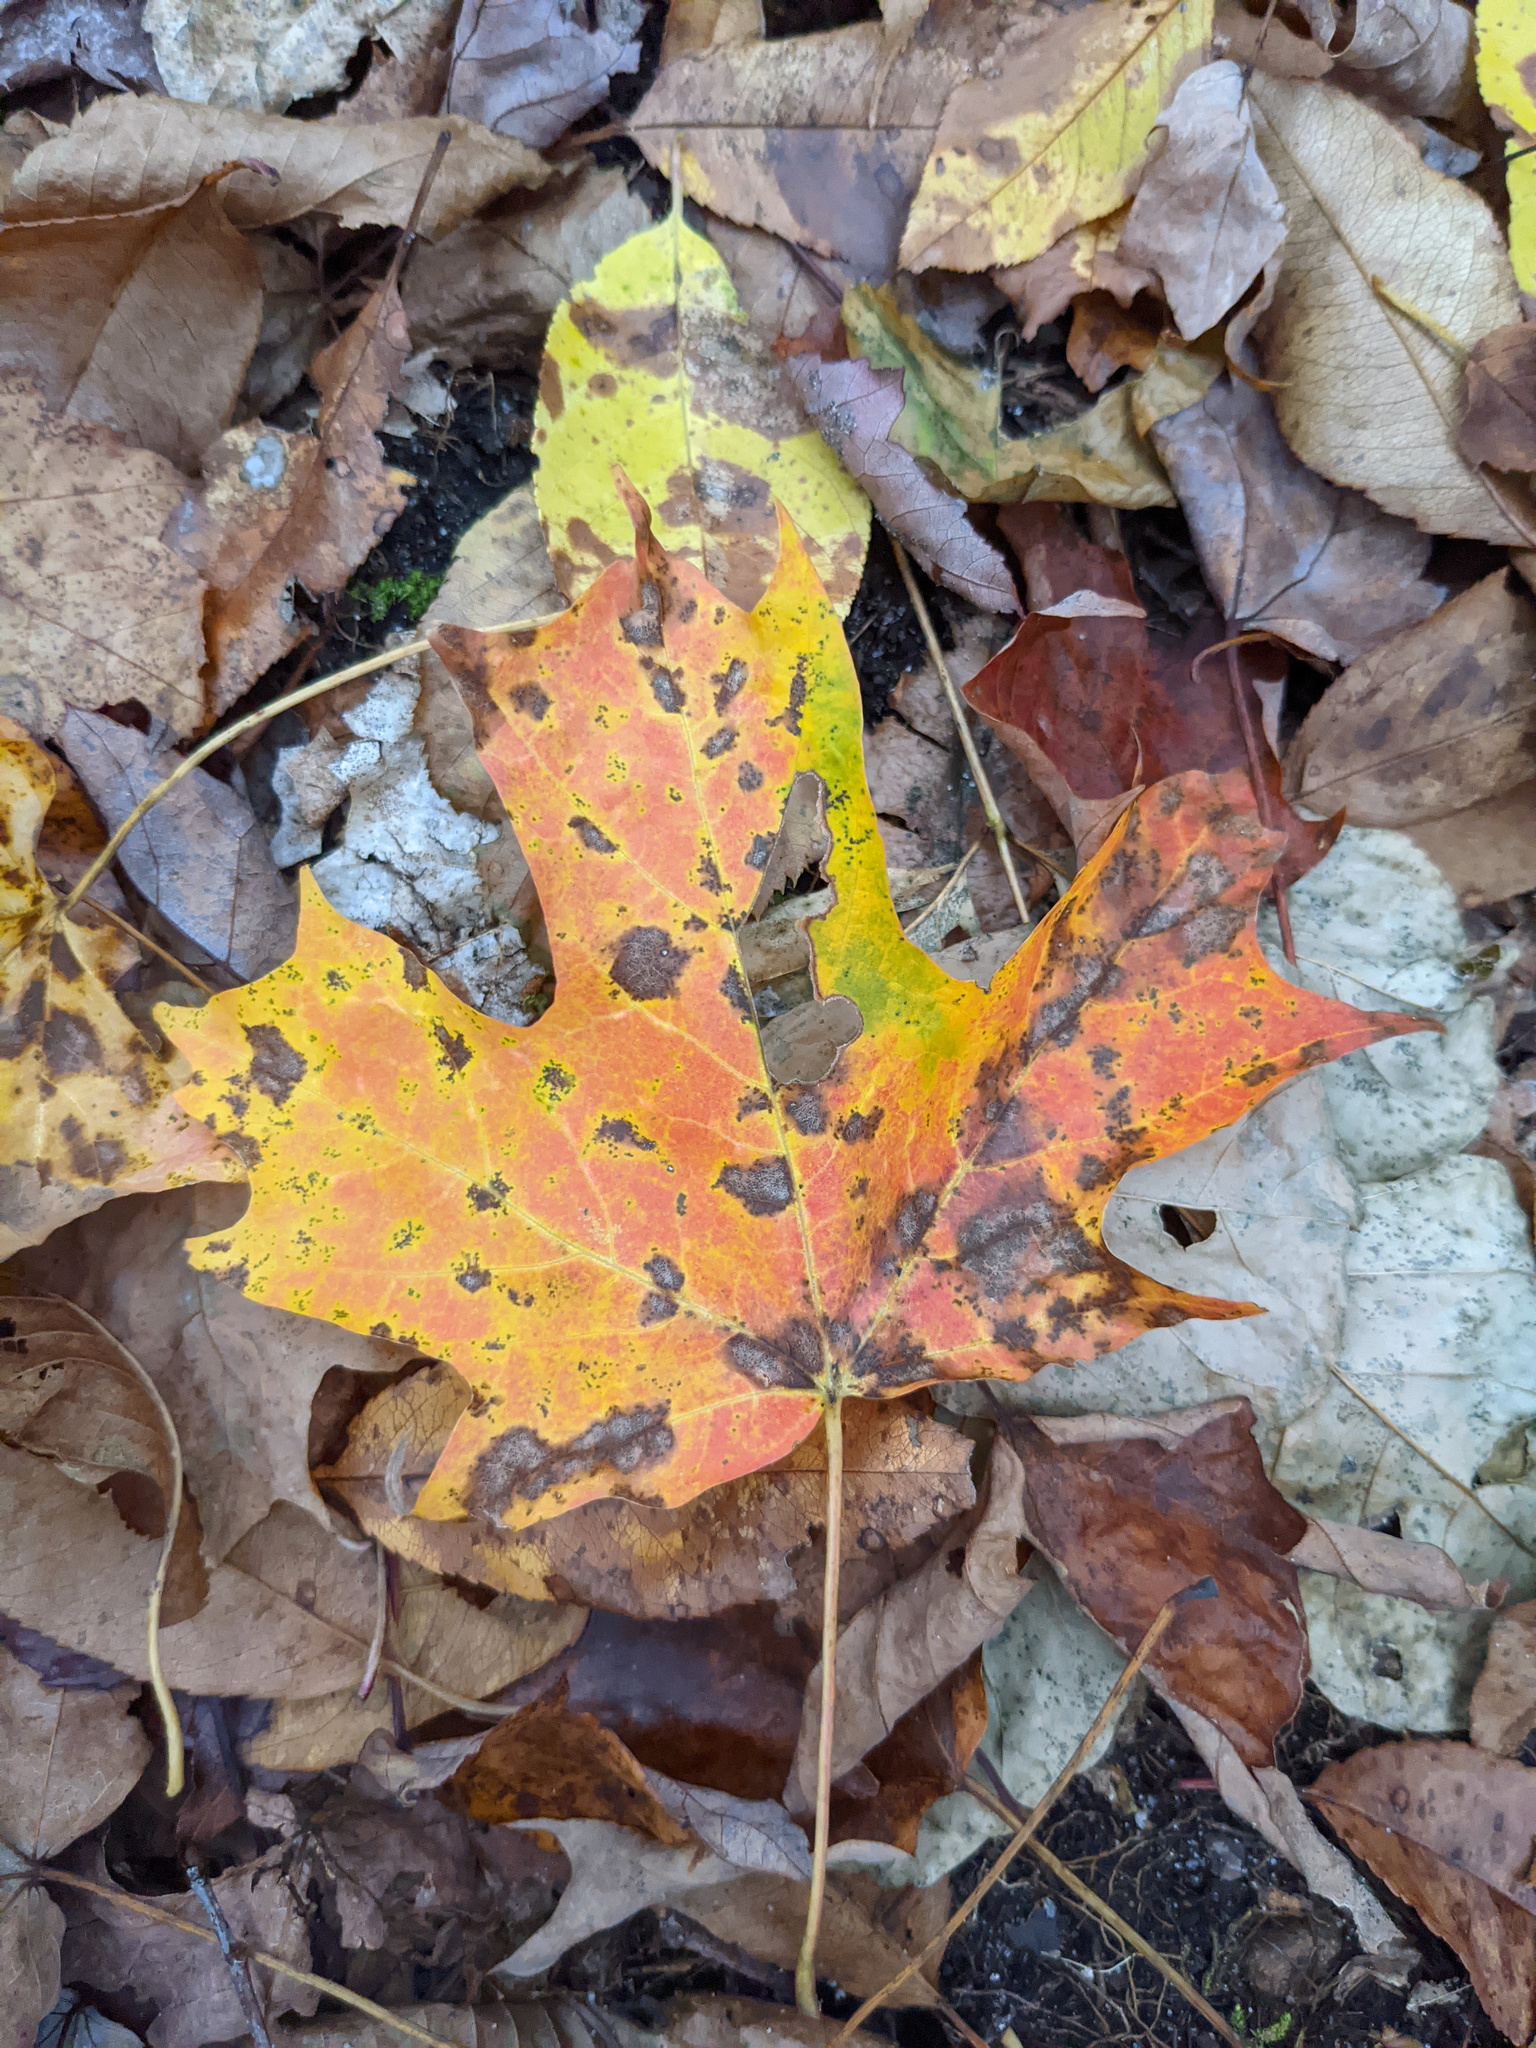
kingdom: Plantae
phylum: Tracheophyta
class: Magnoliopsida
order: Sapindales
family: Sapindaceae
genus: Acer
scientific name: Acer saccharum
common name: Sugar maple
